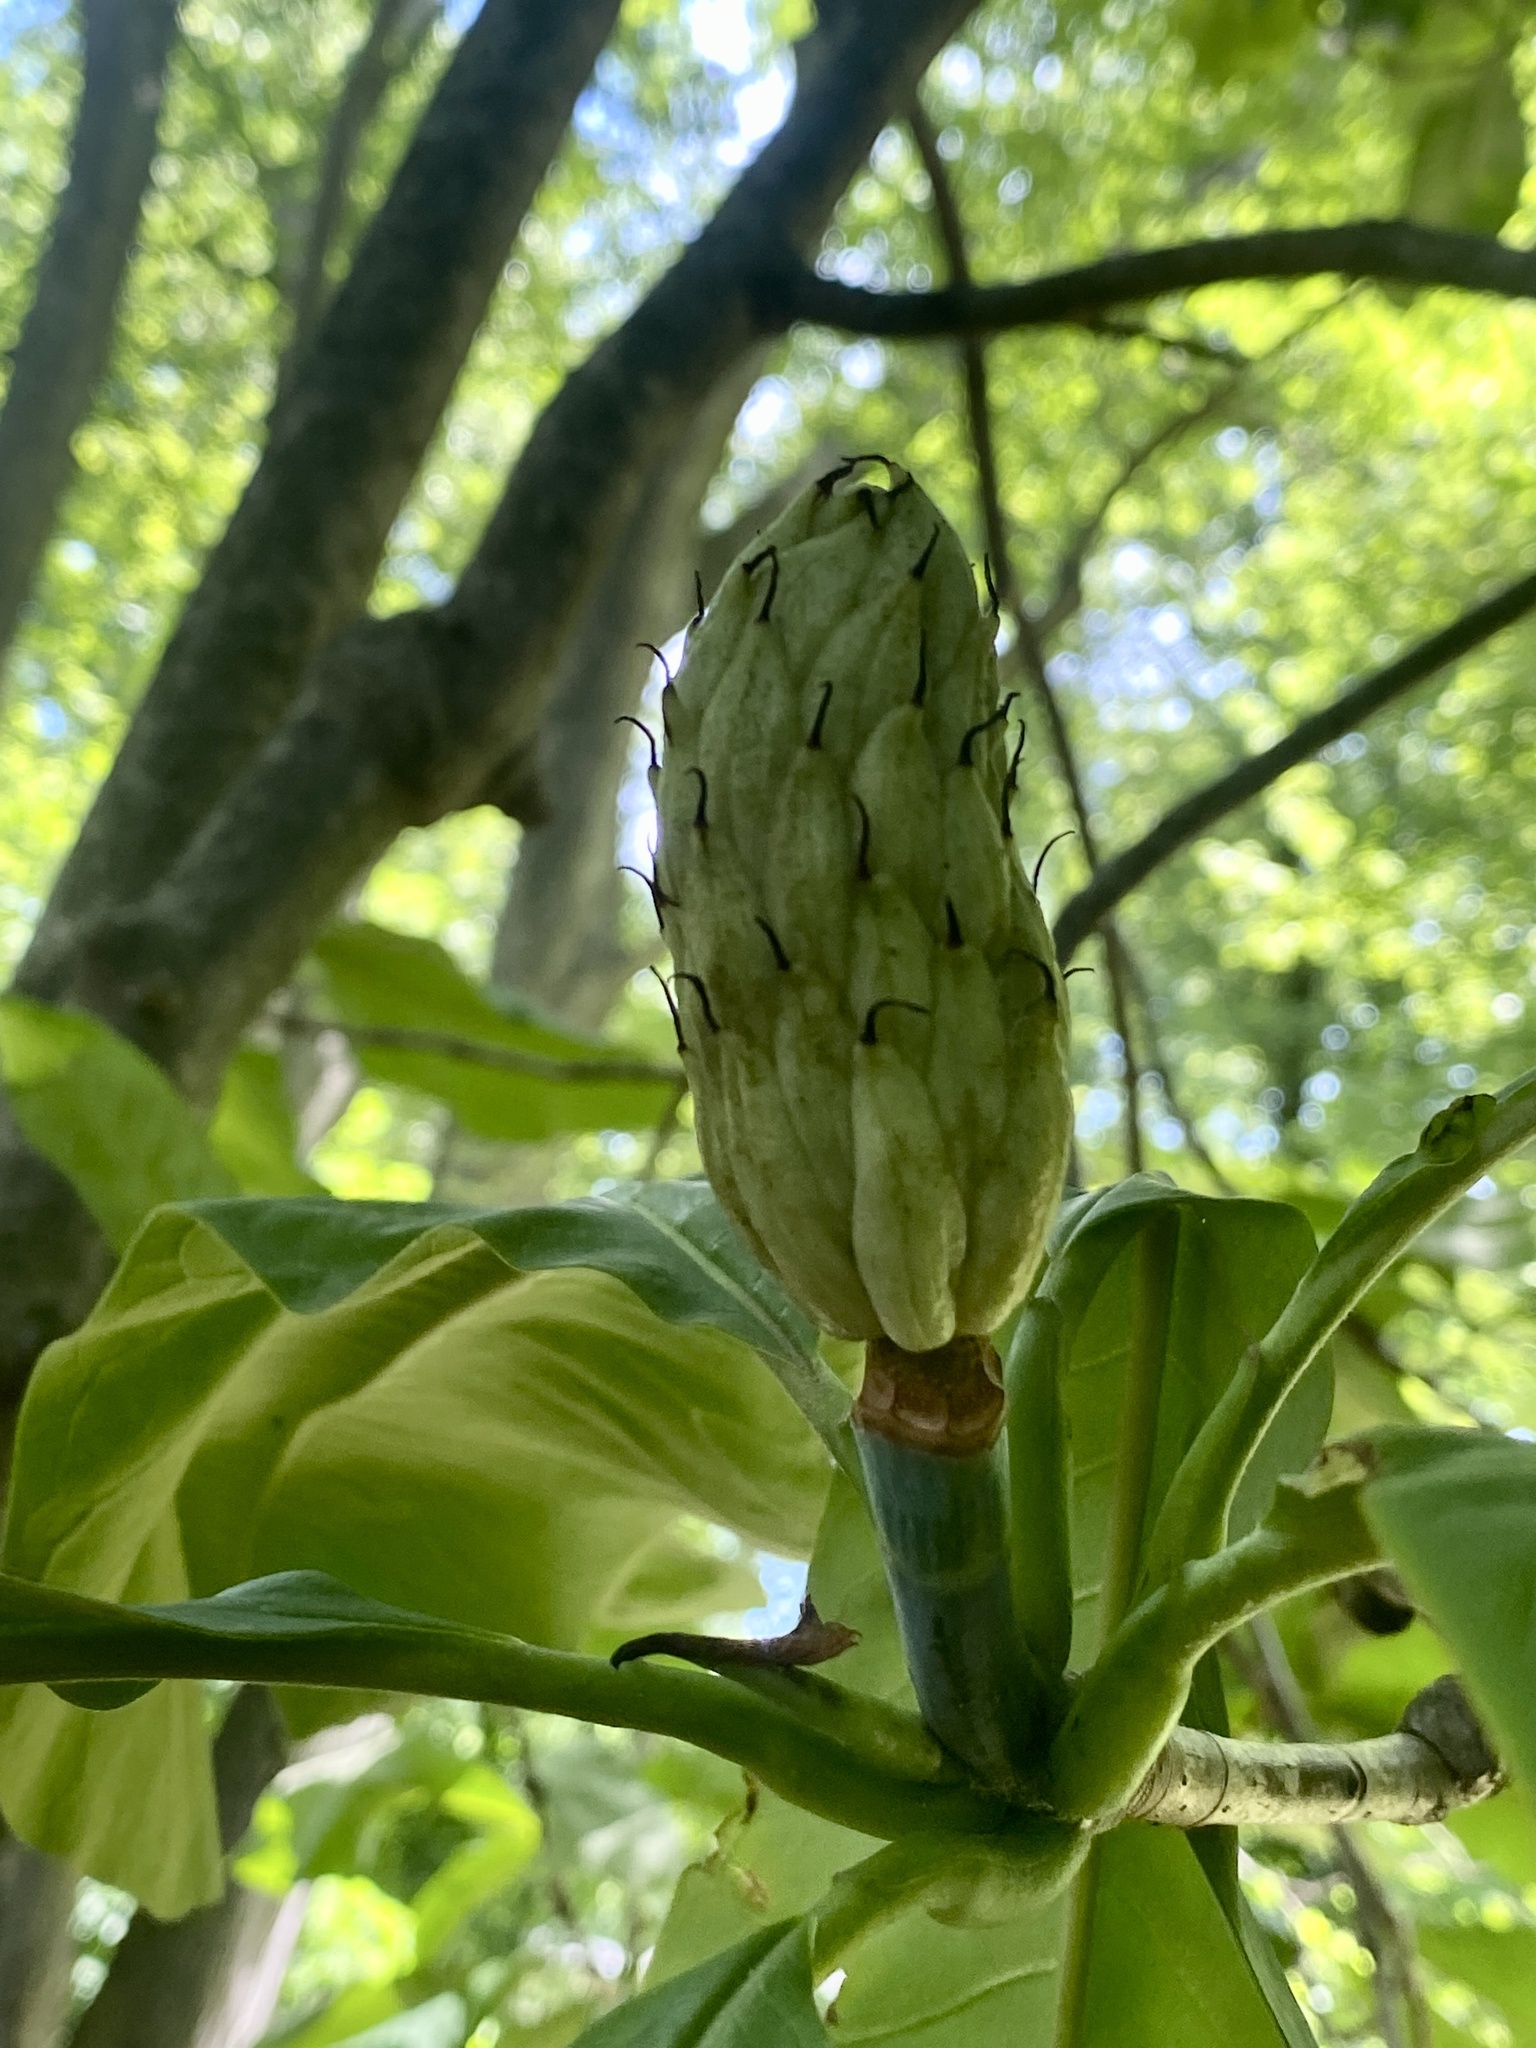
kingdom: Plantae
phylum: Tracheophyta
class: Magnoliopsida
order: Magnoliales
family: Magnoliaceae
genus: Magnolia
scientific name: Magnolia tripetala
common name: Umbrella magnolia
